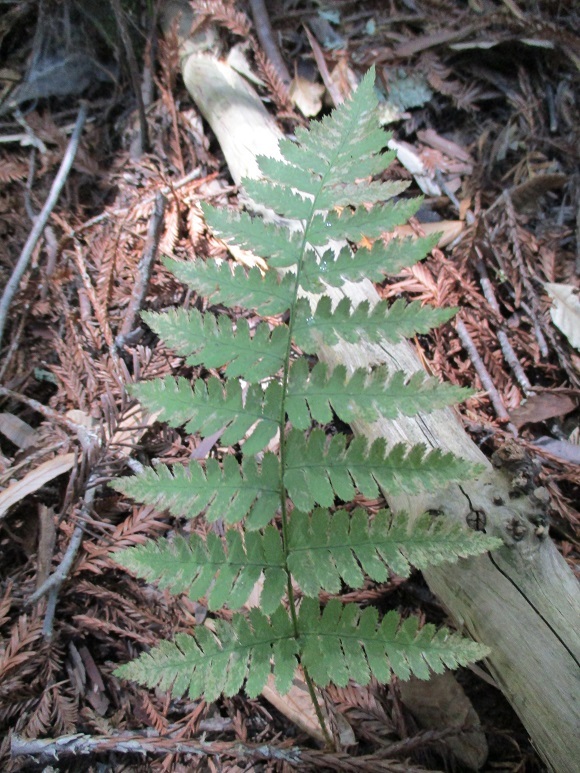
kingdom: Plantae
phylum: Tracheophyta
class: Polypodiopsida
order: Polypodiales
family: Dryopteridaceae
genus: Dryopteris
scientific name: Dryopteris arguta
